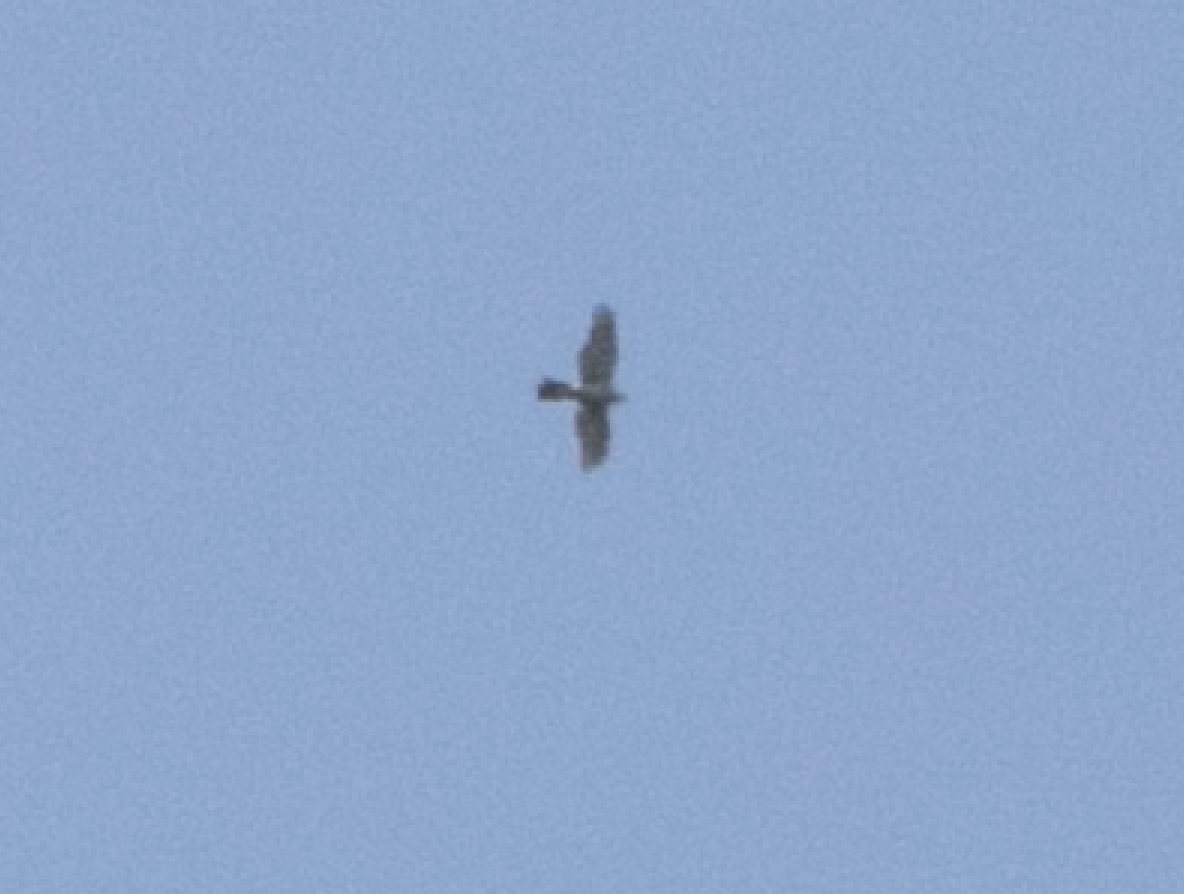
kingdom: Animalia
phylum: Chordata
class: Aves
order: Accipitriformes
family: Accipitridae
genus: Accipiter
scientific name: Accipiter gentilis
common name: Northern goshawk
